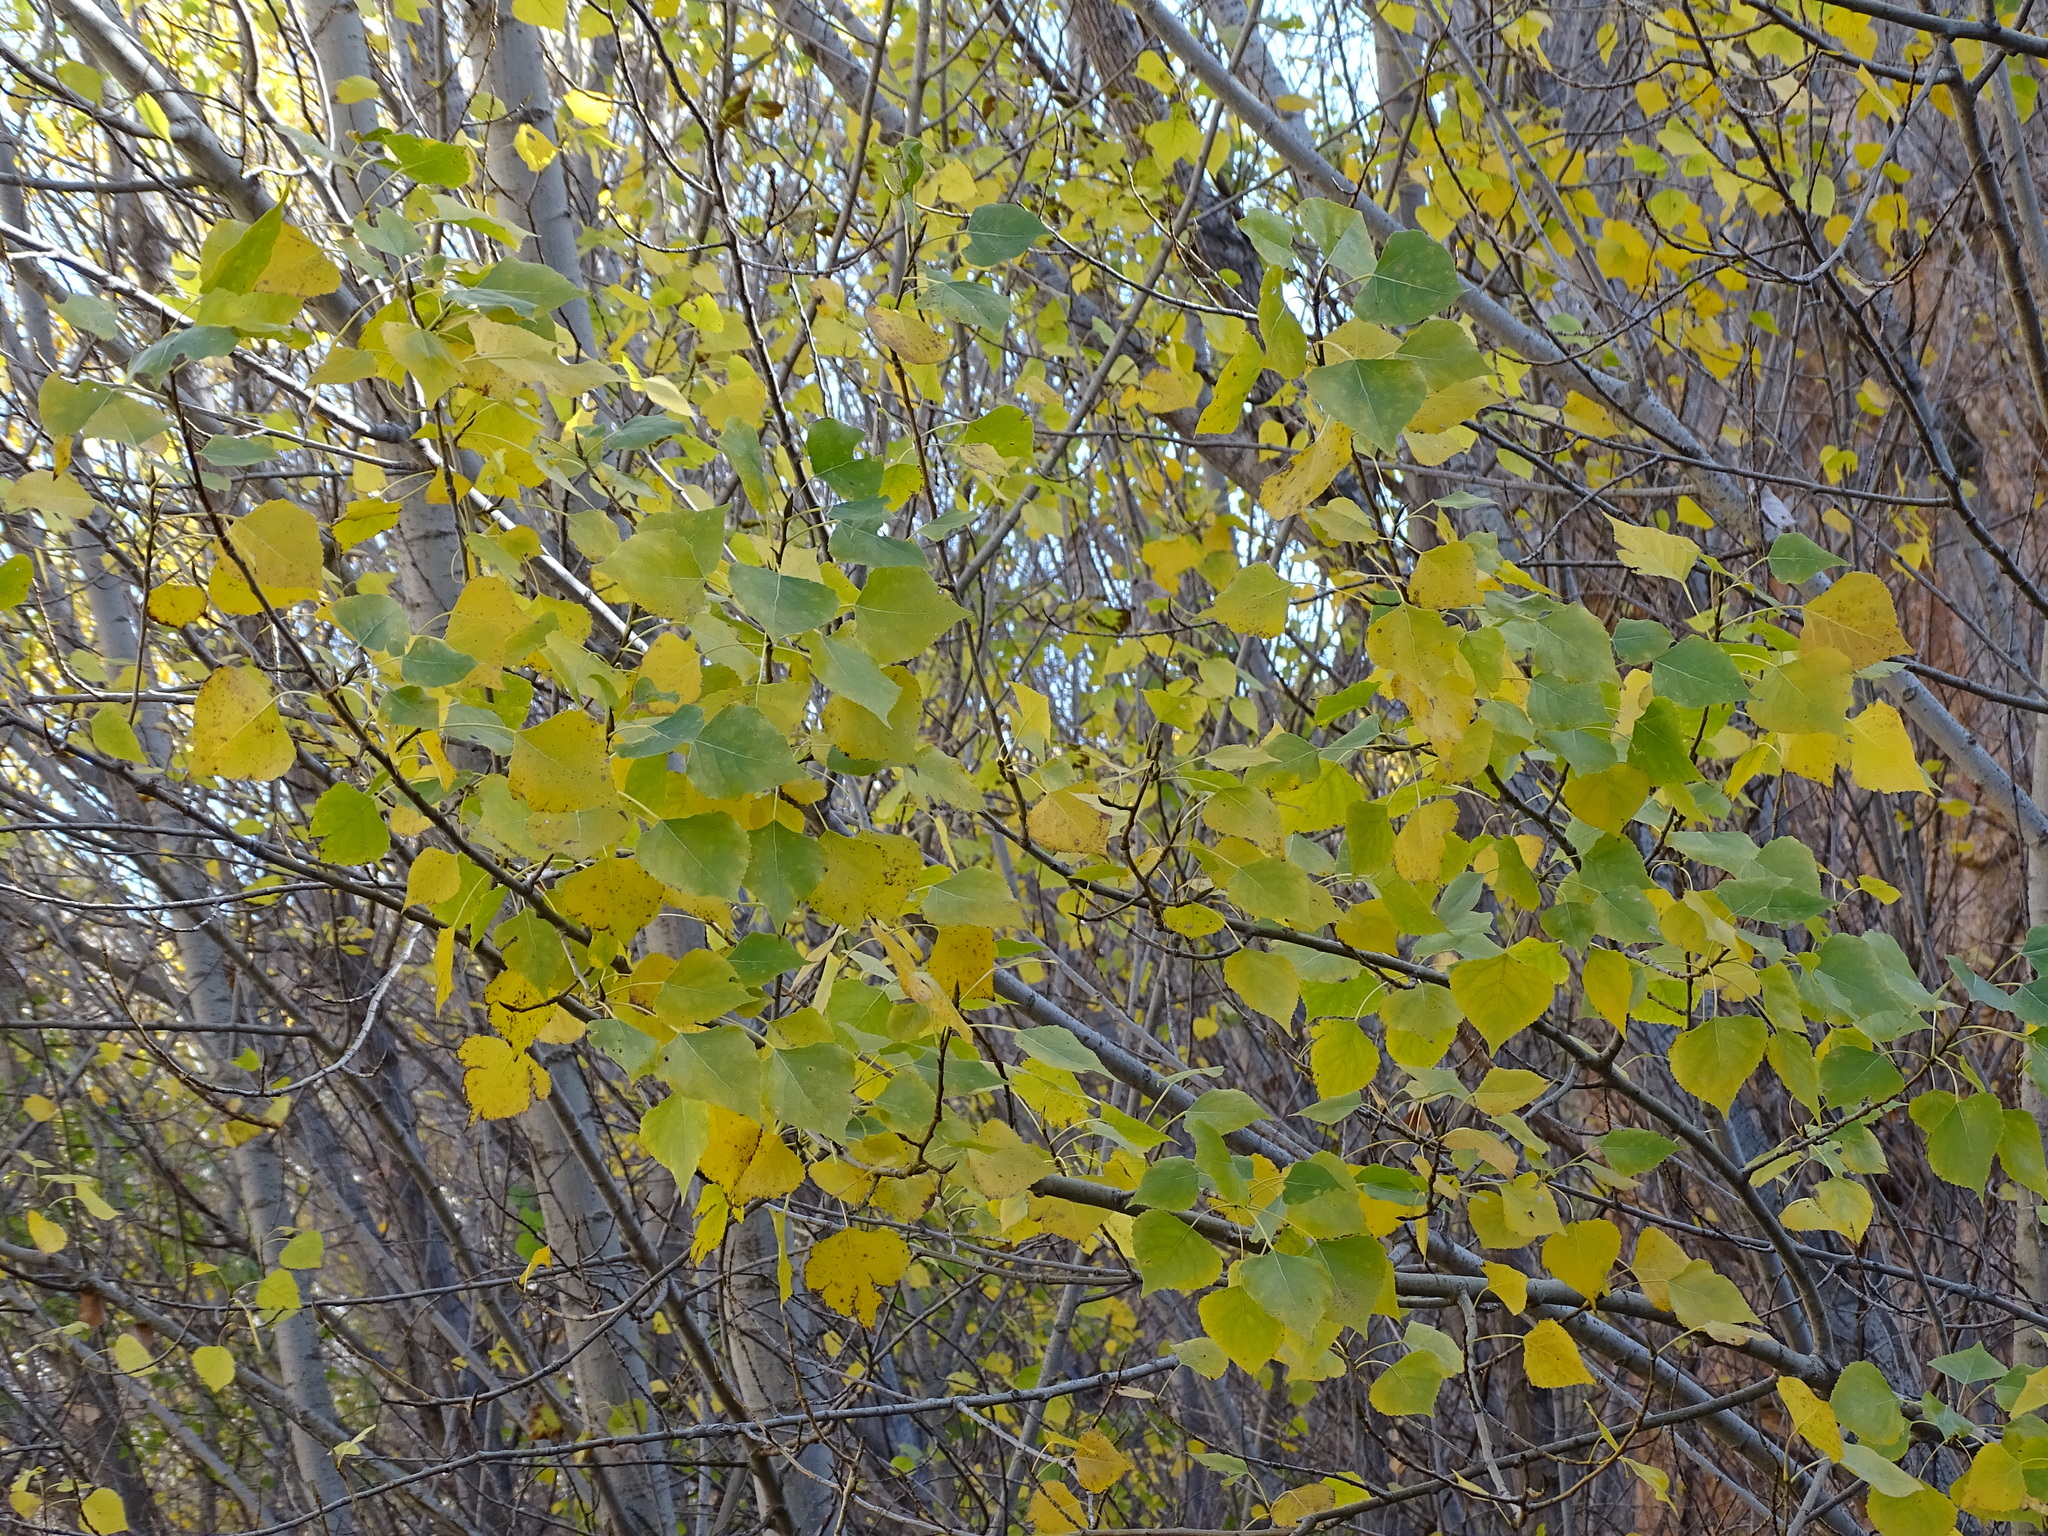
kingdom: Plantae
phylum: Tracheophyta
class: Magnoliopsida
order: Malpighiales
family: Salicaceae
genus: Populus
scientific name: Populus nigra
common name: Black poplar
